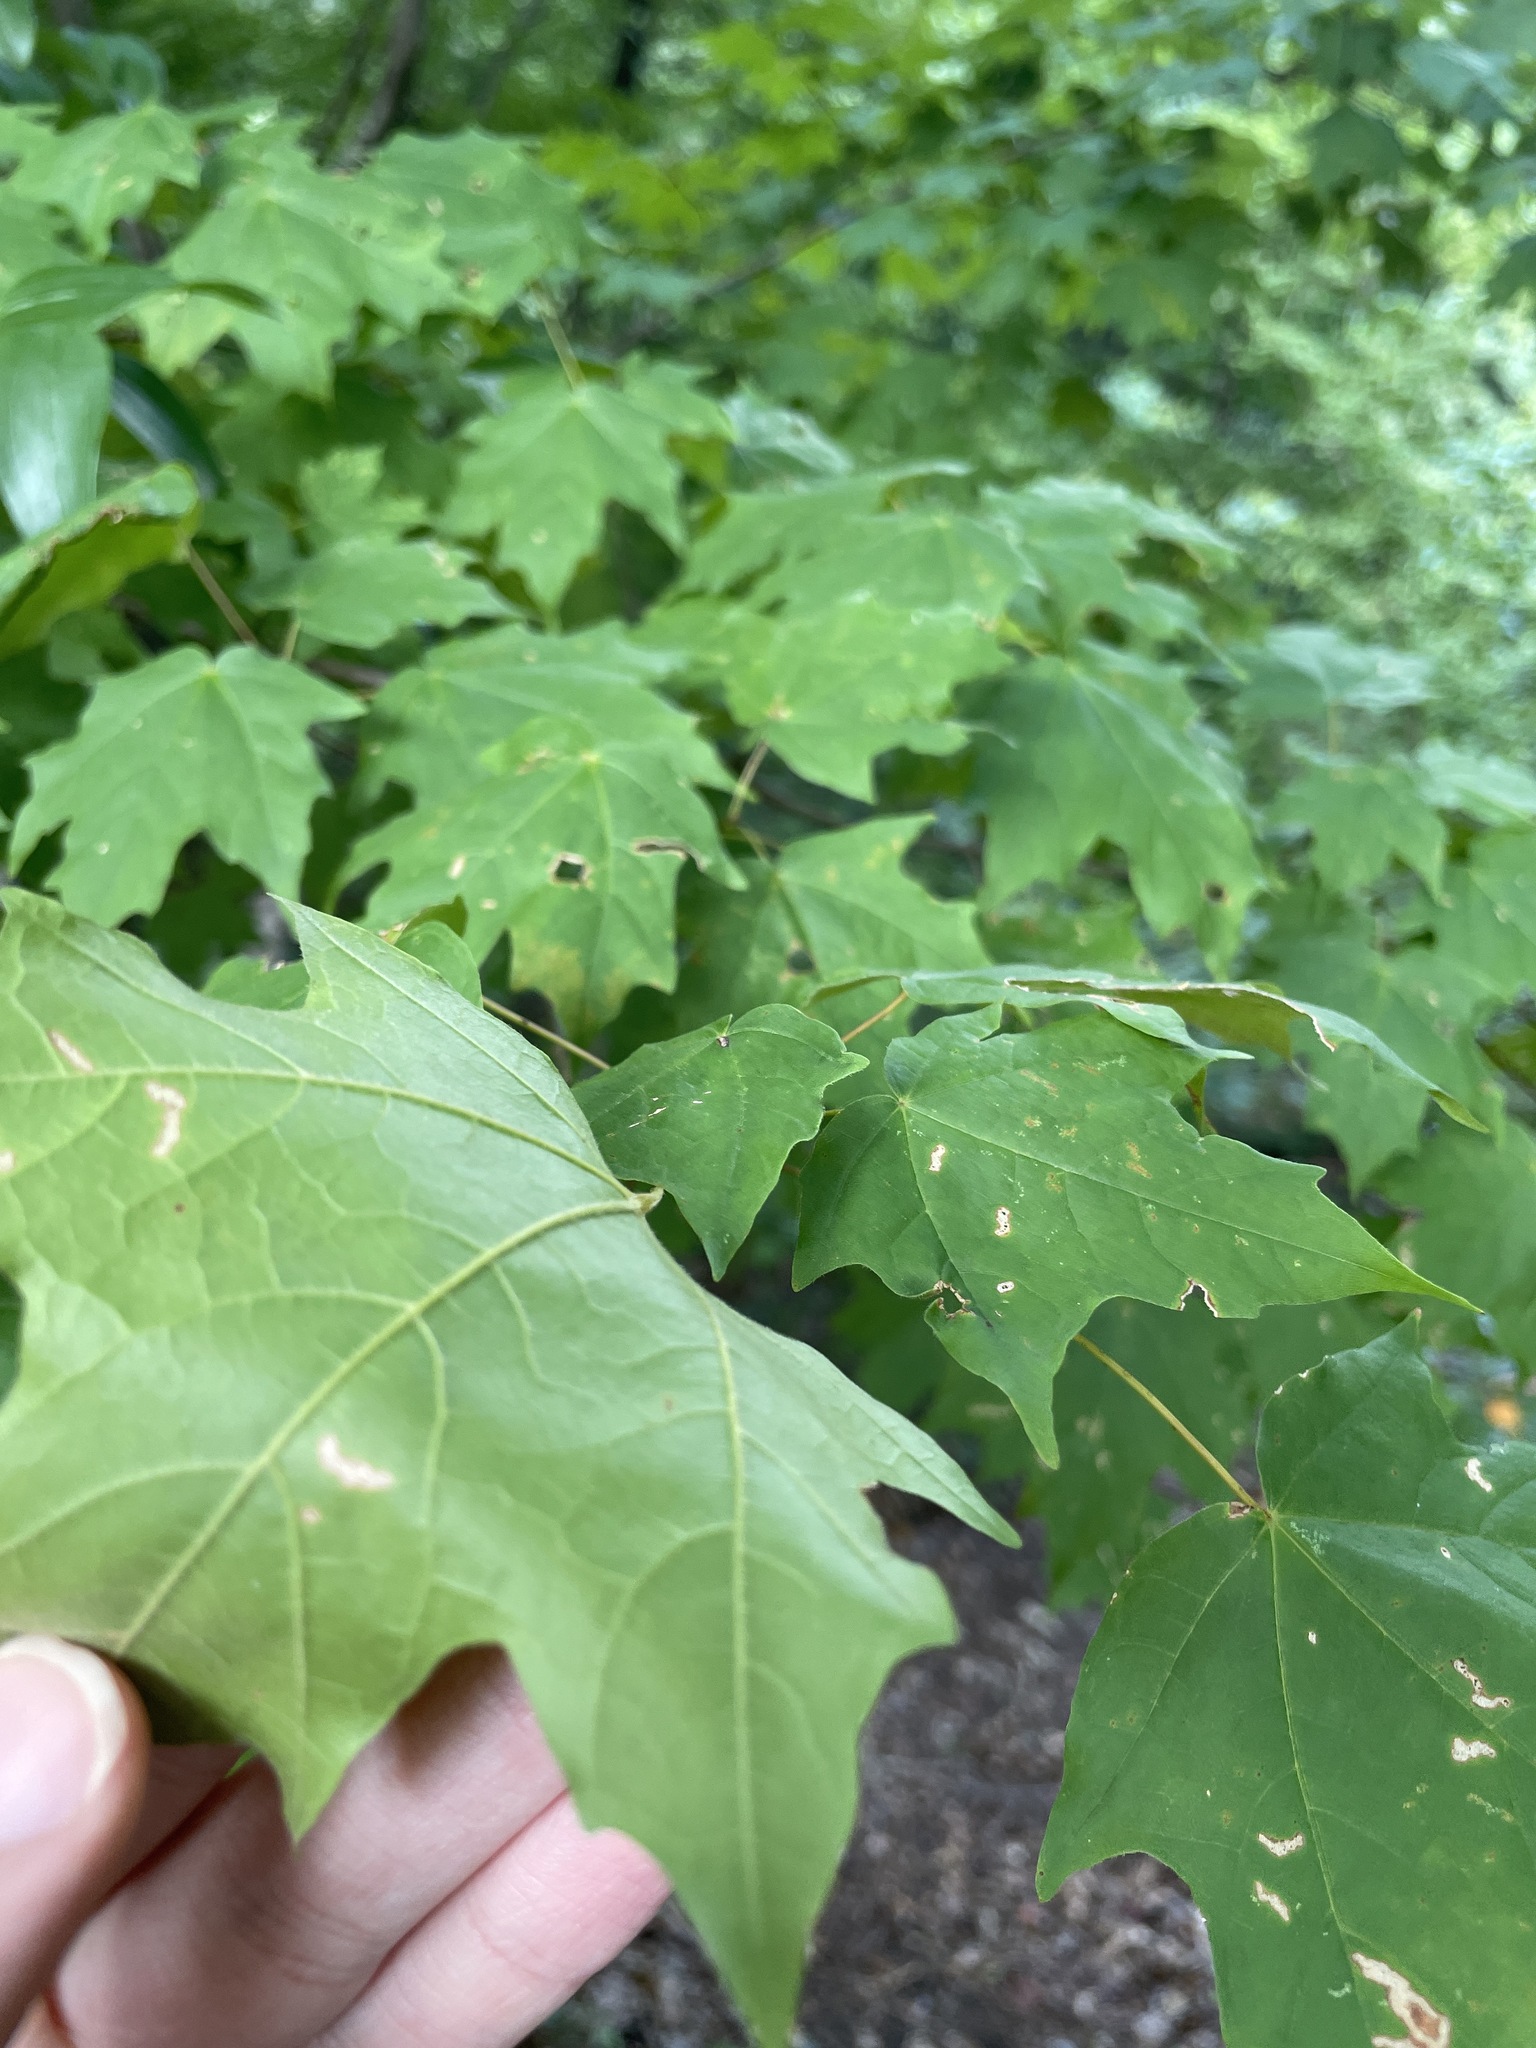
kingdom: Plantae
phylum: Tracheophyta
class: Magnoliopsida
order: Sapindales
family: Sapindaceae
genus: Acer
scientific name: Acer floridanum
